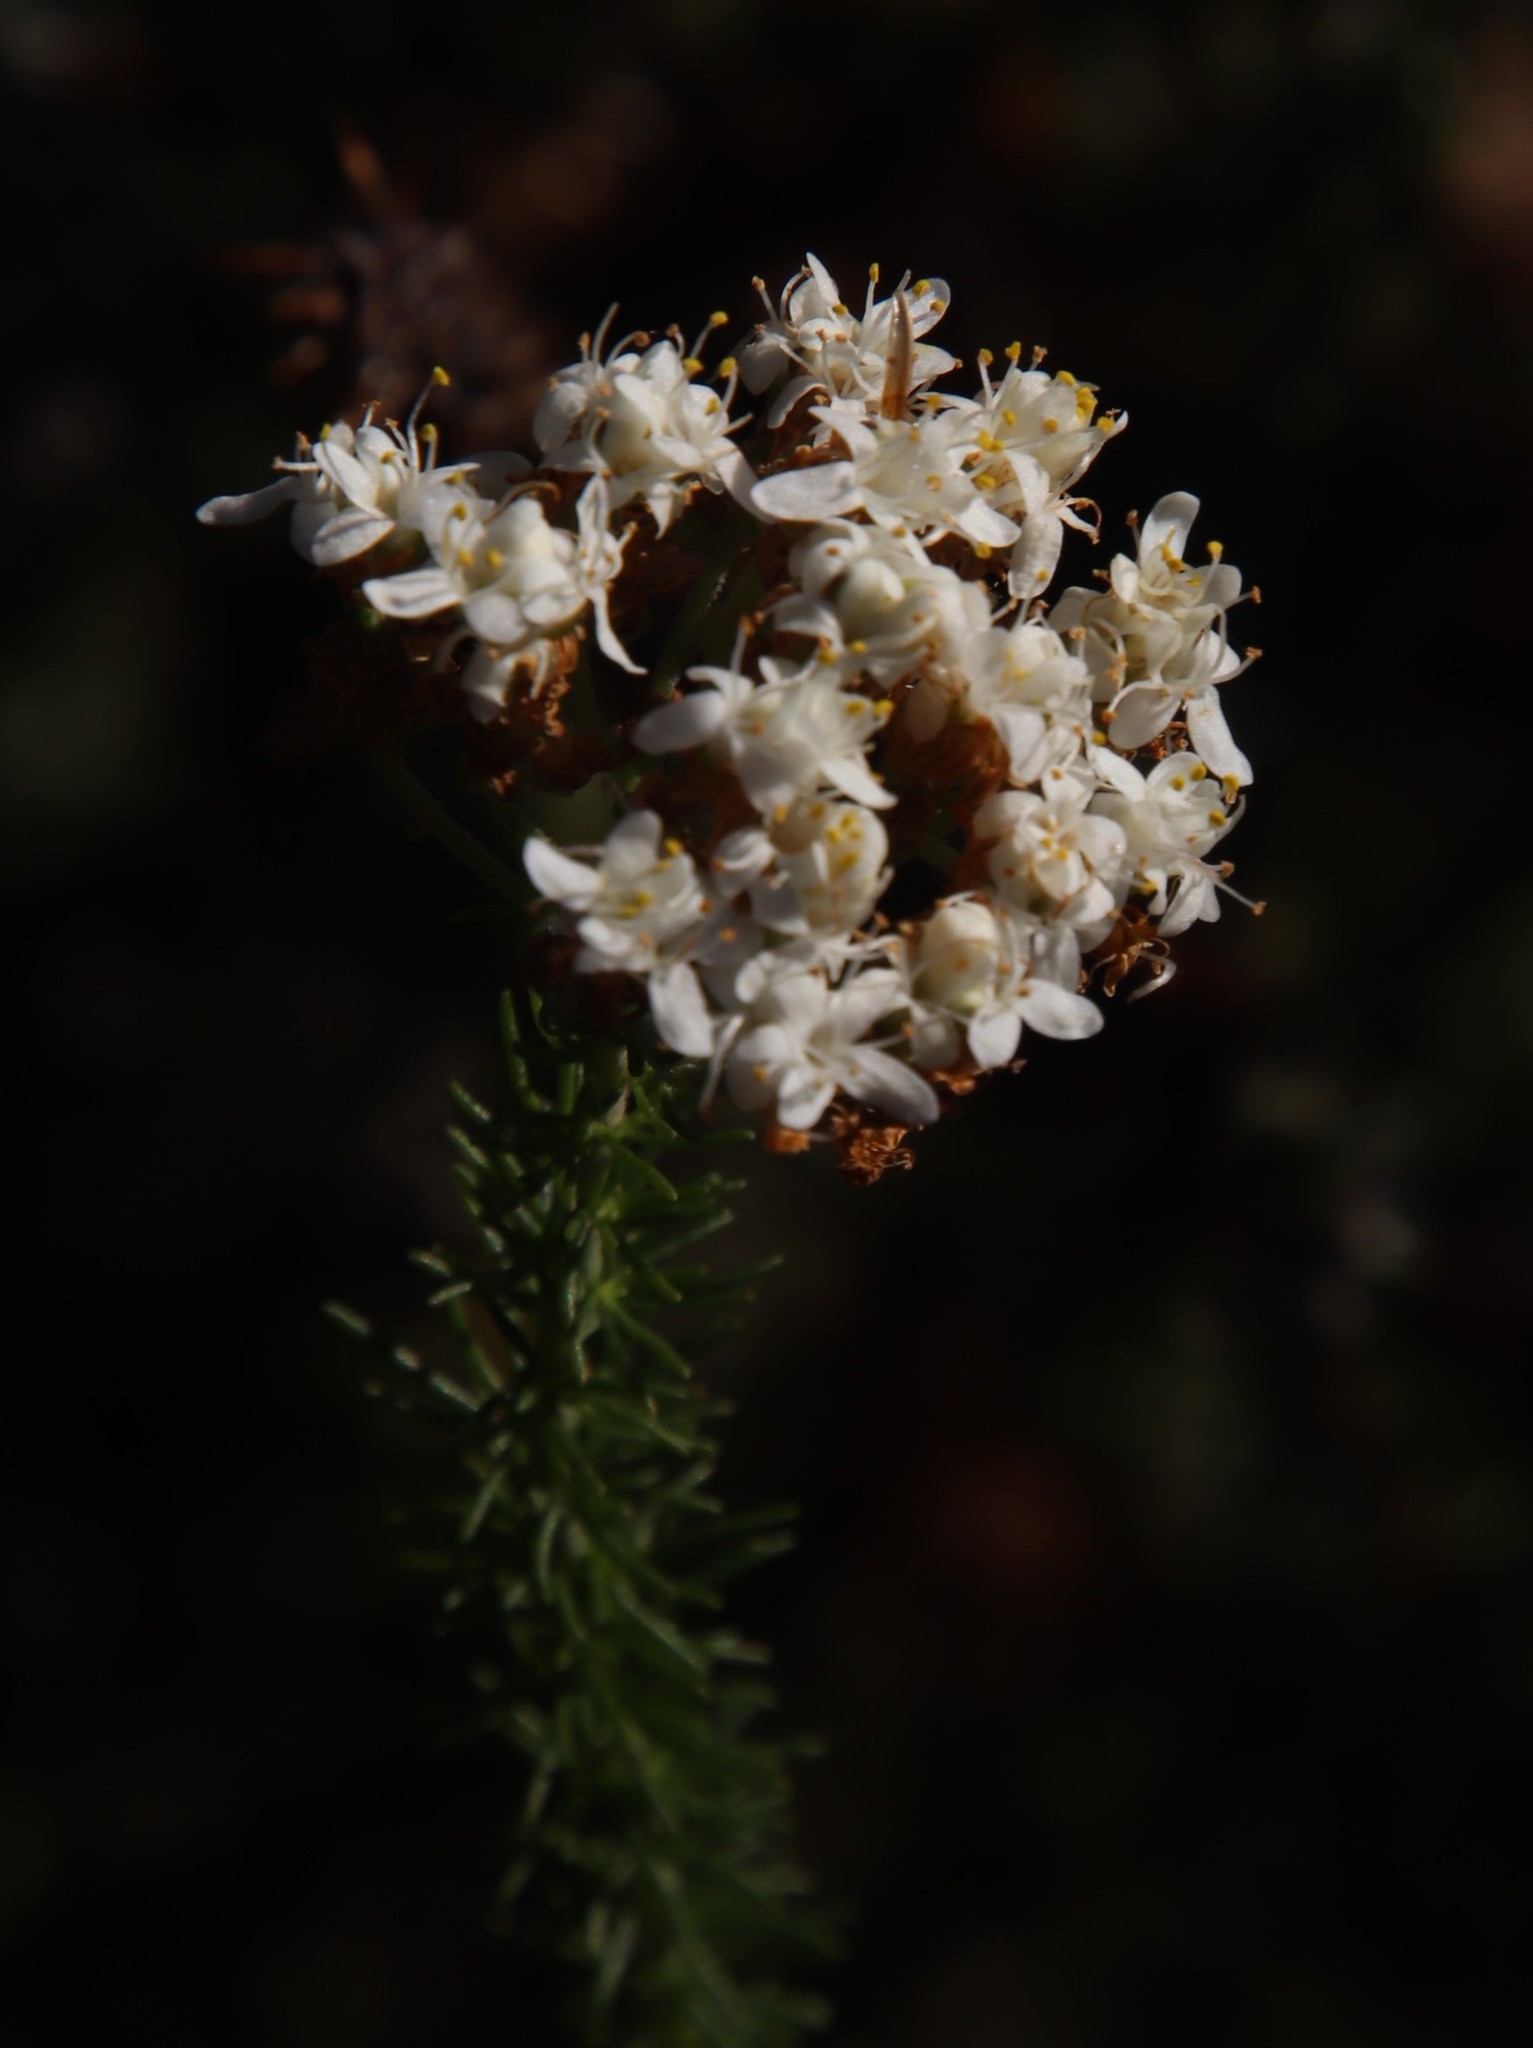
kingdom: Plantae
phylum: Tracheophyta
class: Magnoliopsida
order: Lamiales
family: Scrophulariaceae
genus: Selago
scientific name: Selago corymbosa
